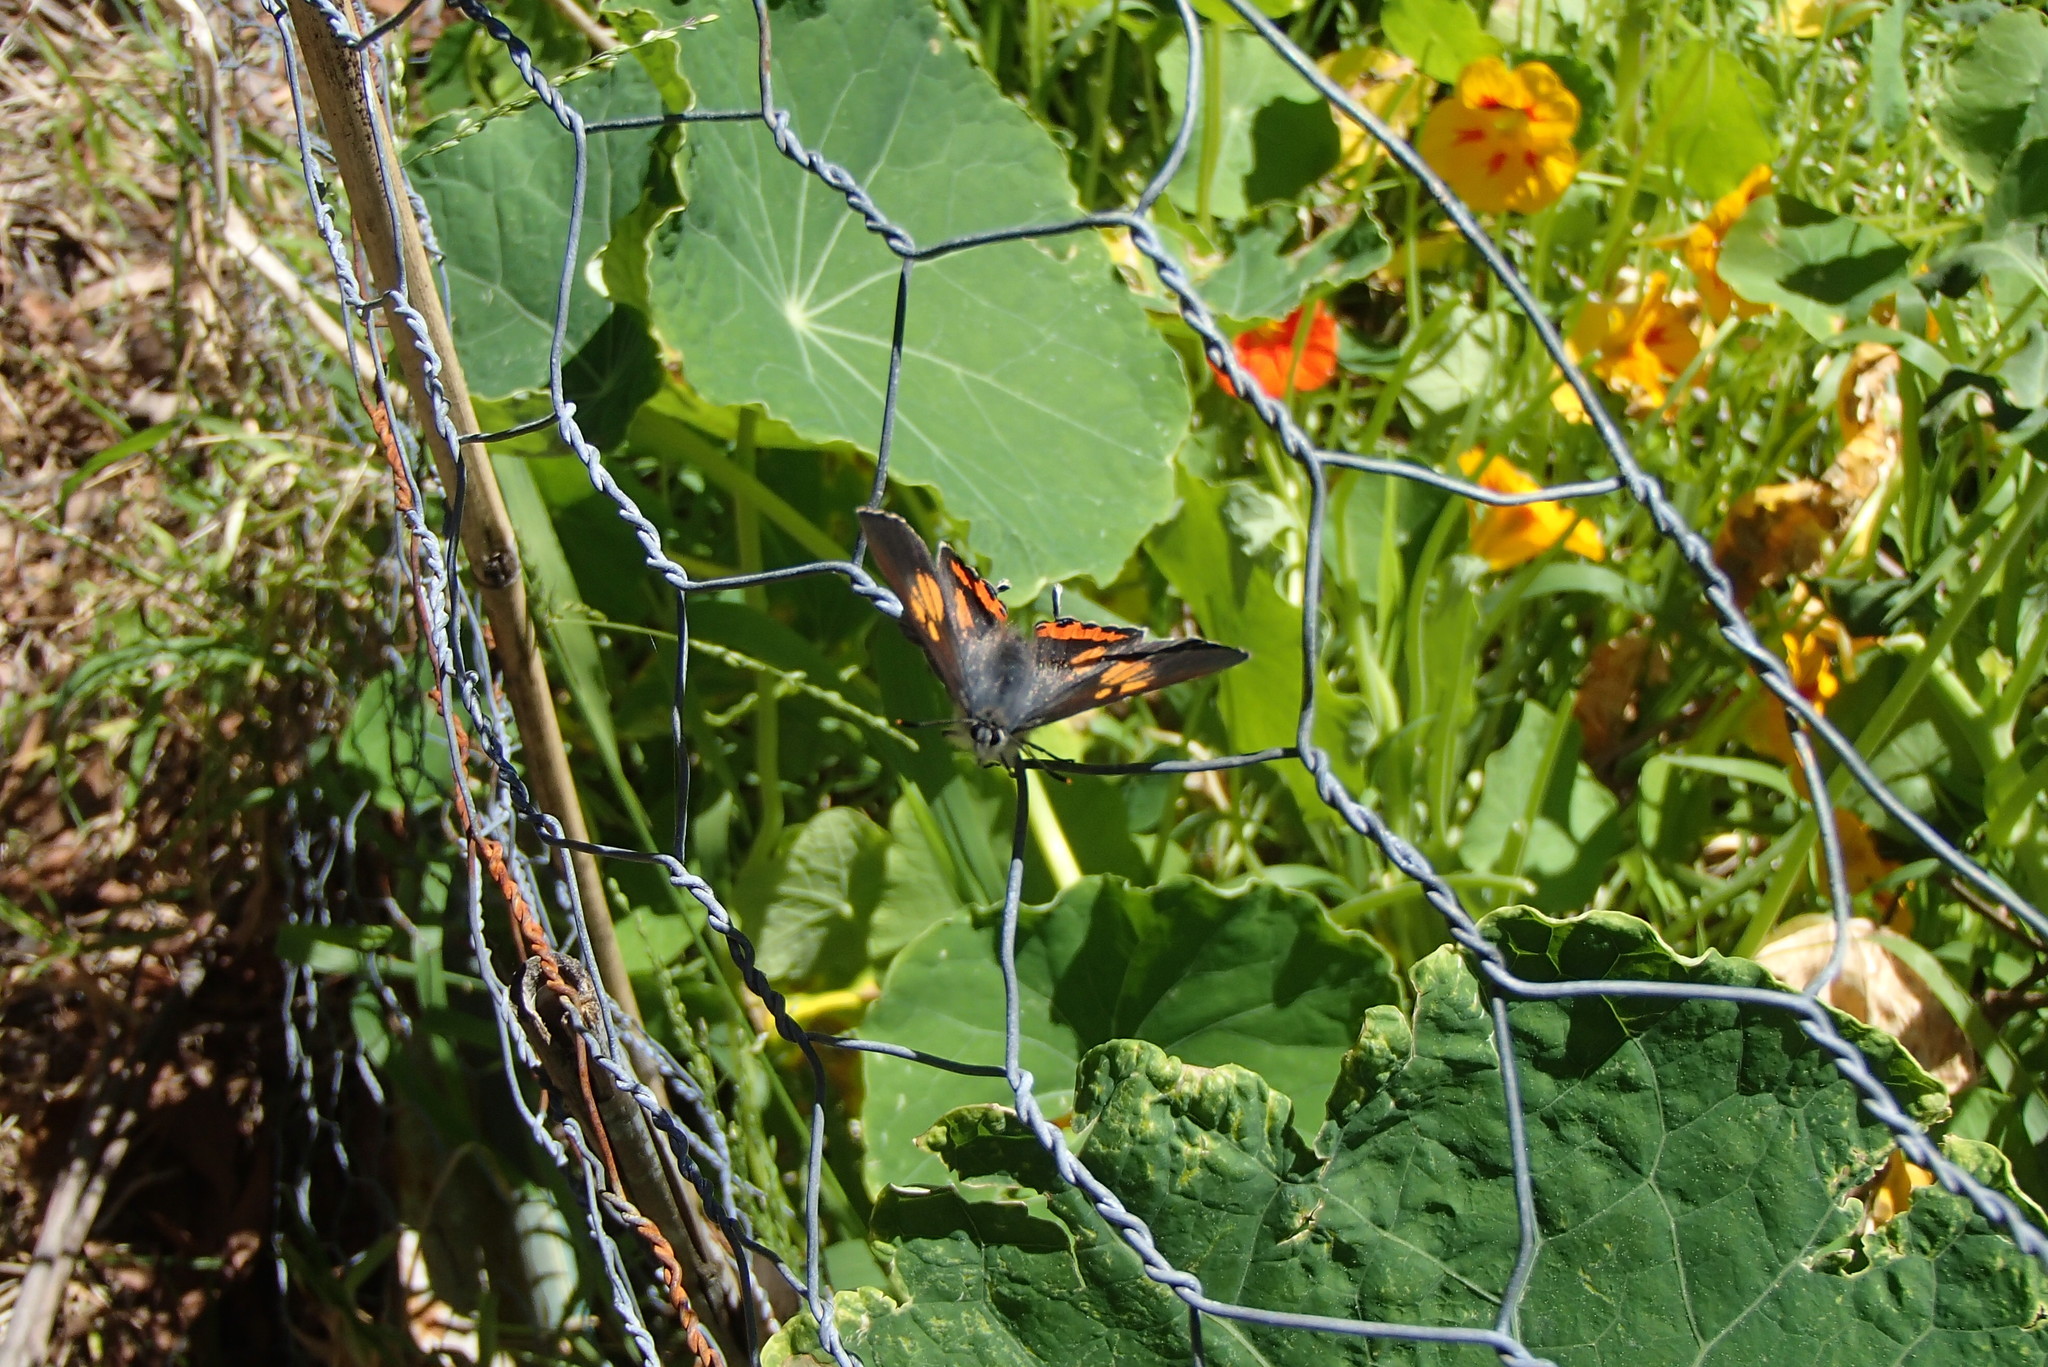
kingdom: Animalia
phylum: Arthropoda
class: Insecta
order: Lepidoptera
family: Lycaenidae
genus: Pseudalmenus
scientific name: Pseudalmenus chlorinda
